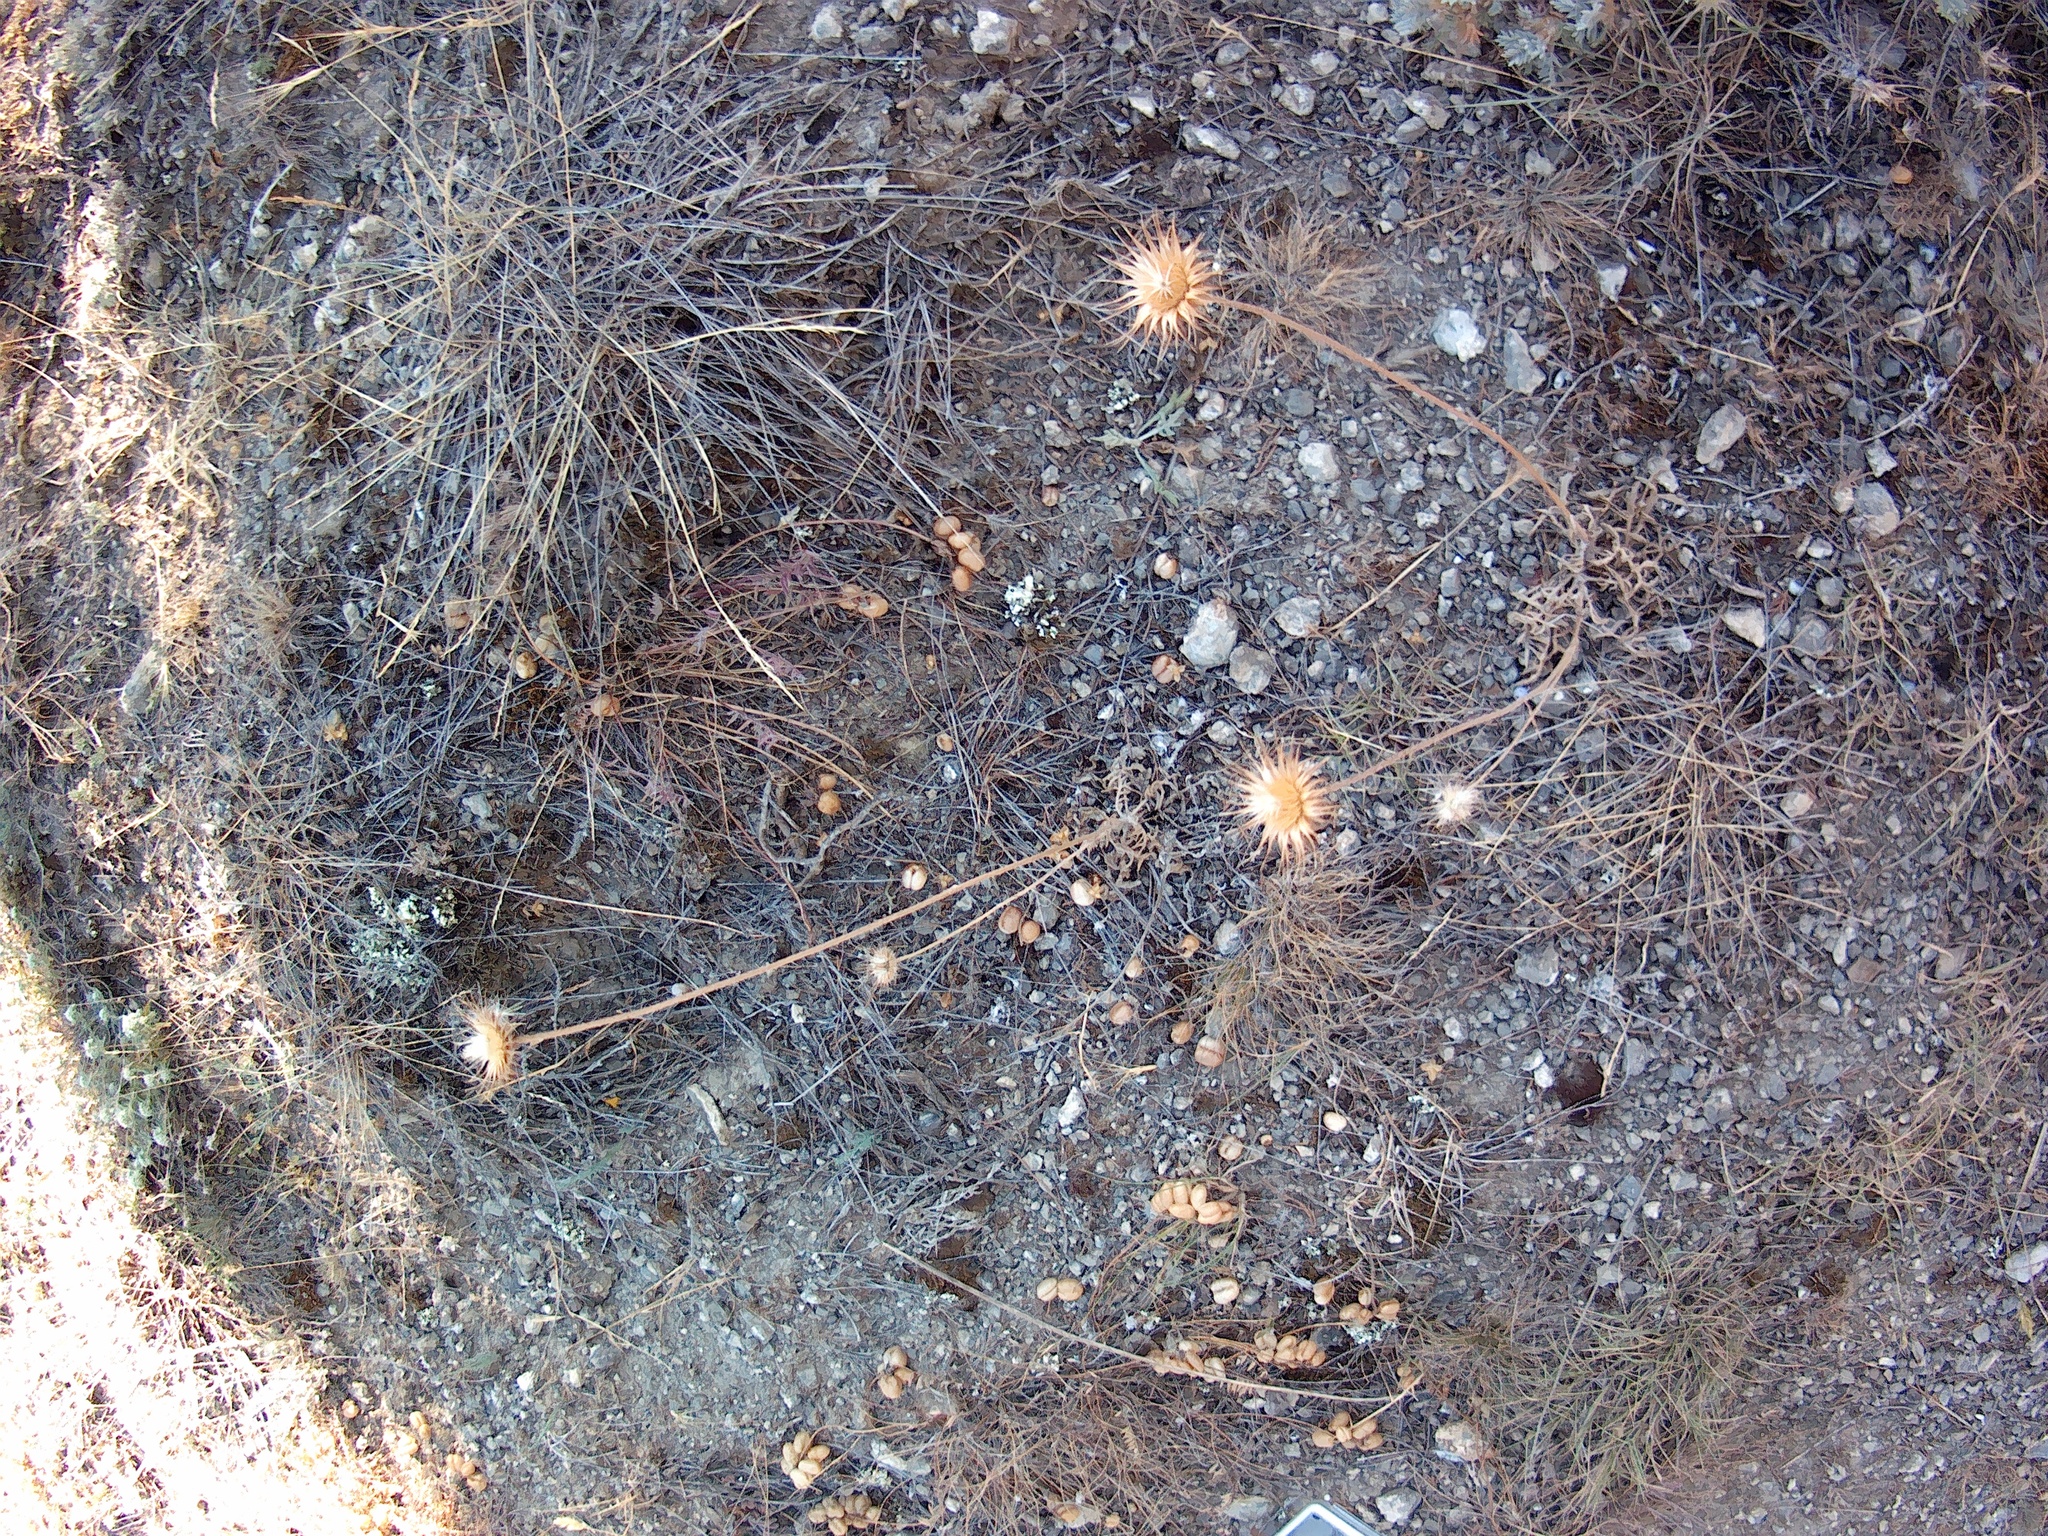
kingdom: Plantae
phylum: Tracheophyta
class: Magnoliopsida
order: Asterales
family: Asteraceae
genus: Jurinea
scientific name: Jurinea roegneri
